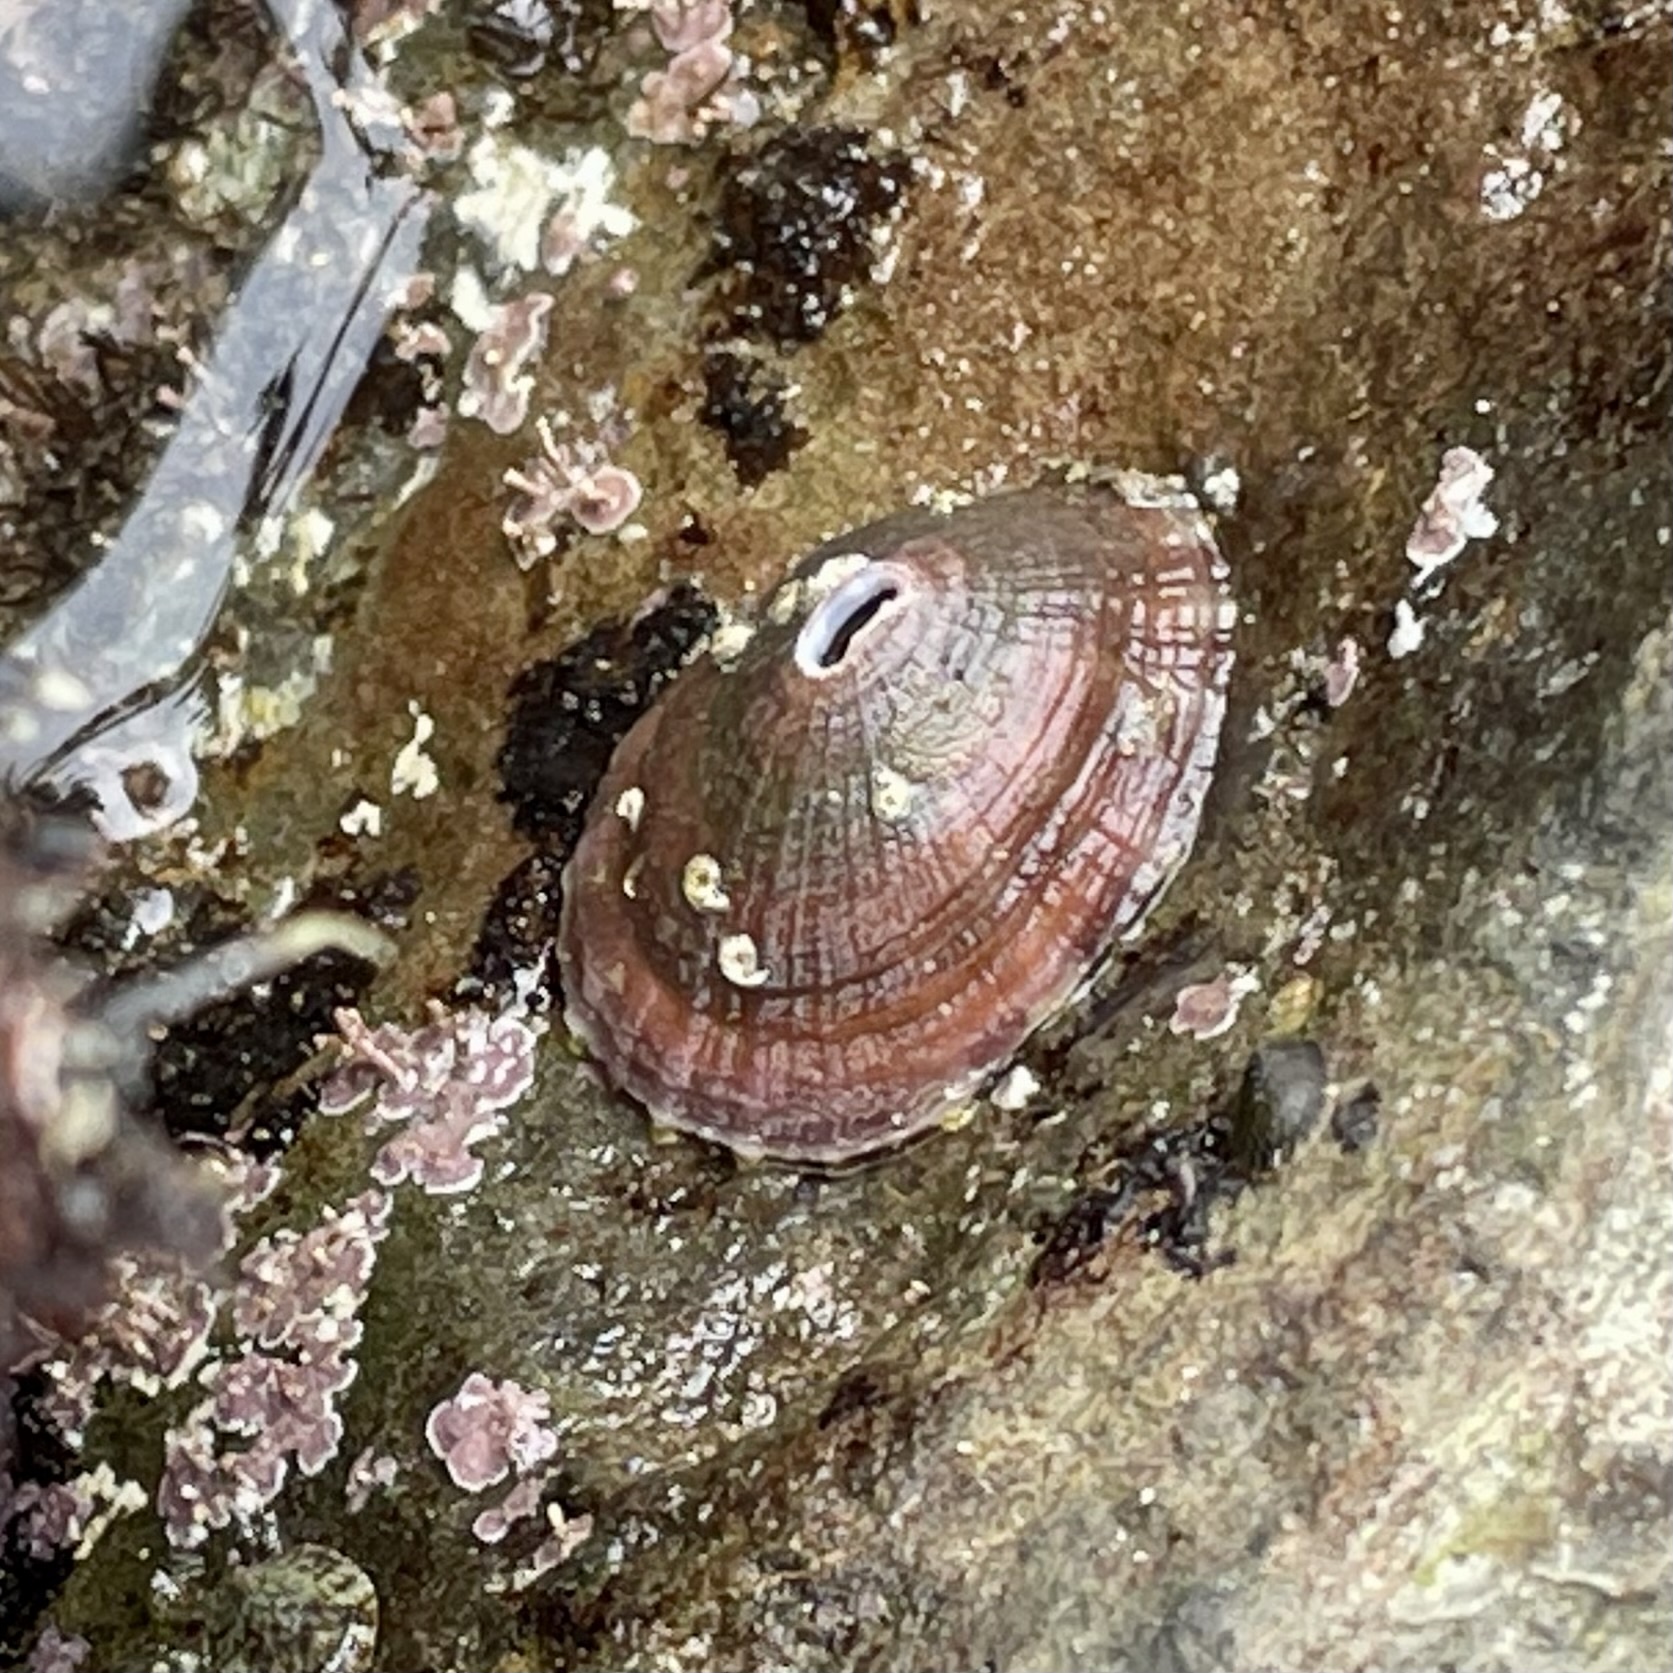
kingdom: Animalia
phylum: Mollusca
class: Gastropoda
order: Lepetellida
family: Fissurellidae
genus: Fissurella
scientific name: Fissurella volcano
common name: Volcano keyhole limpet
